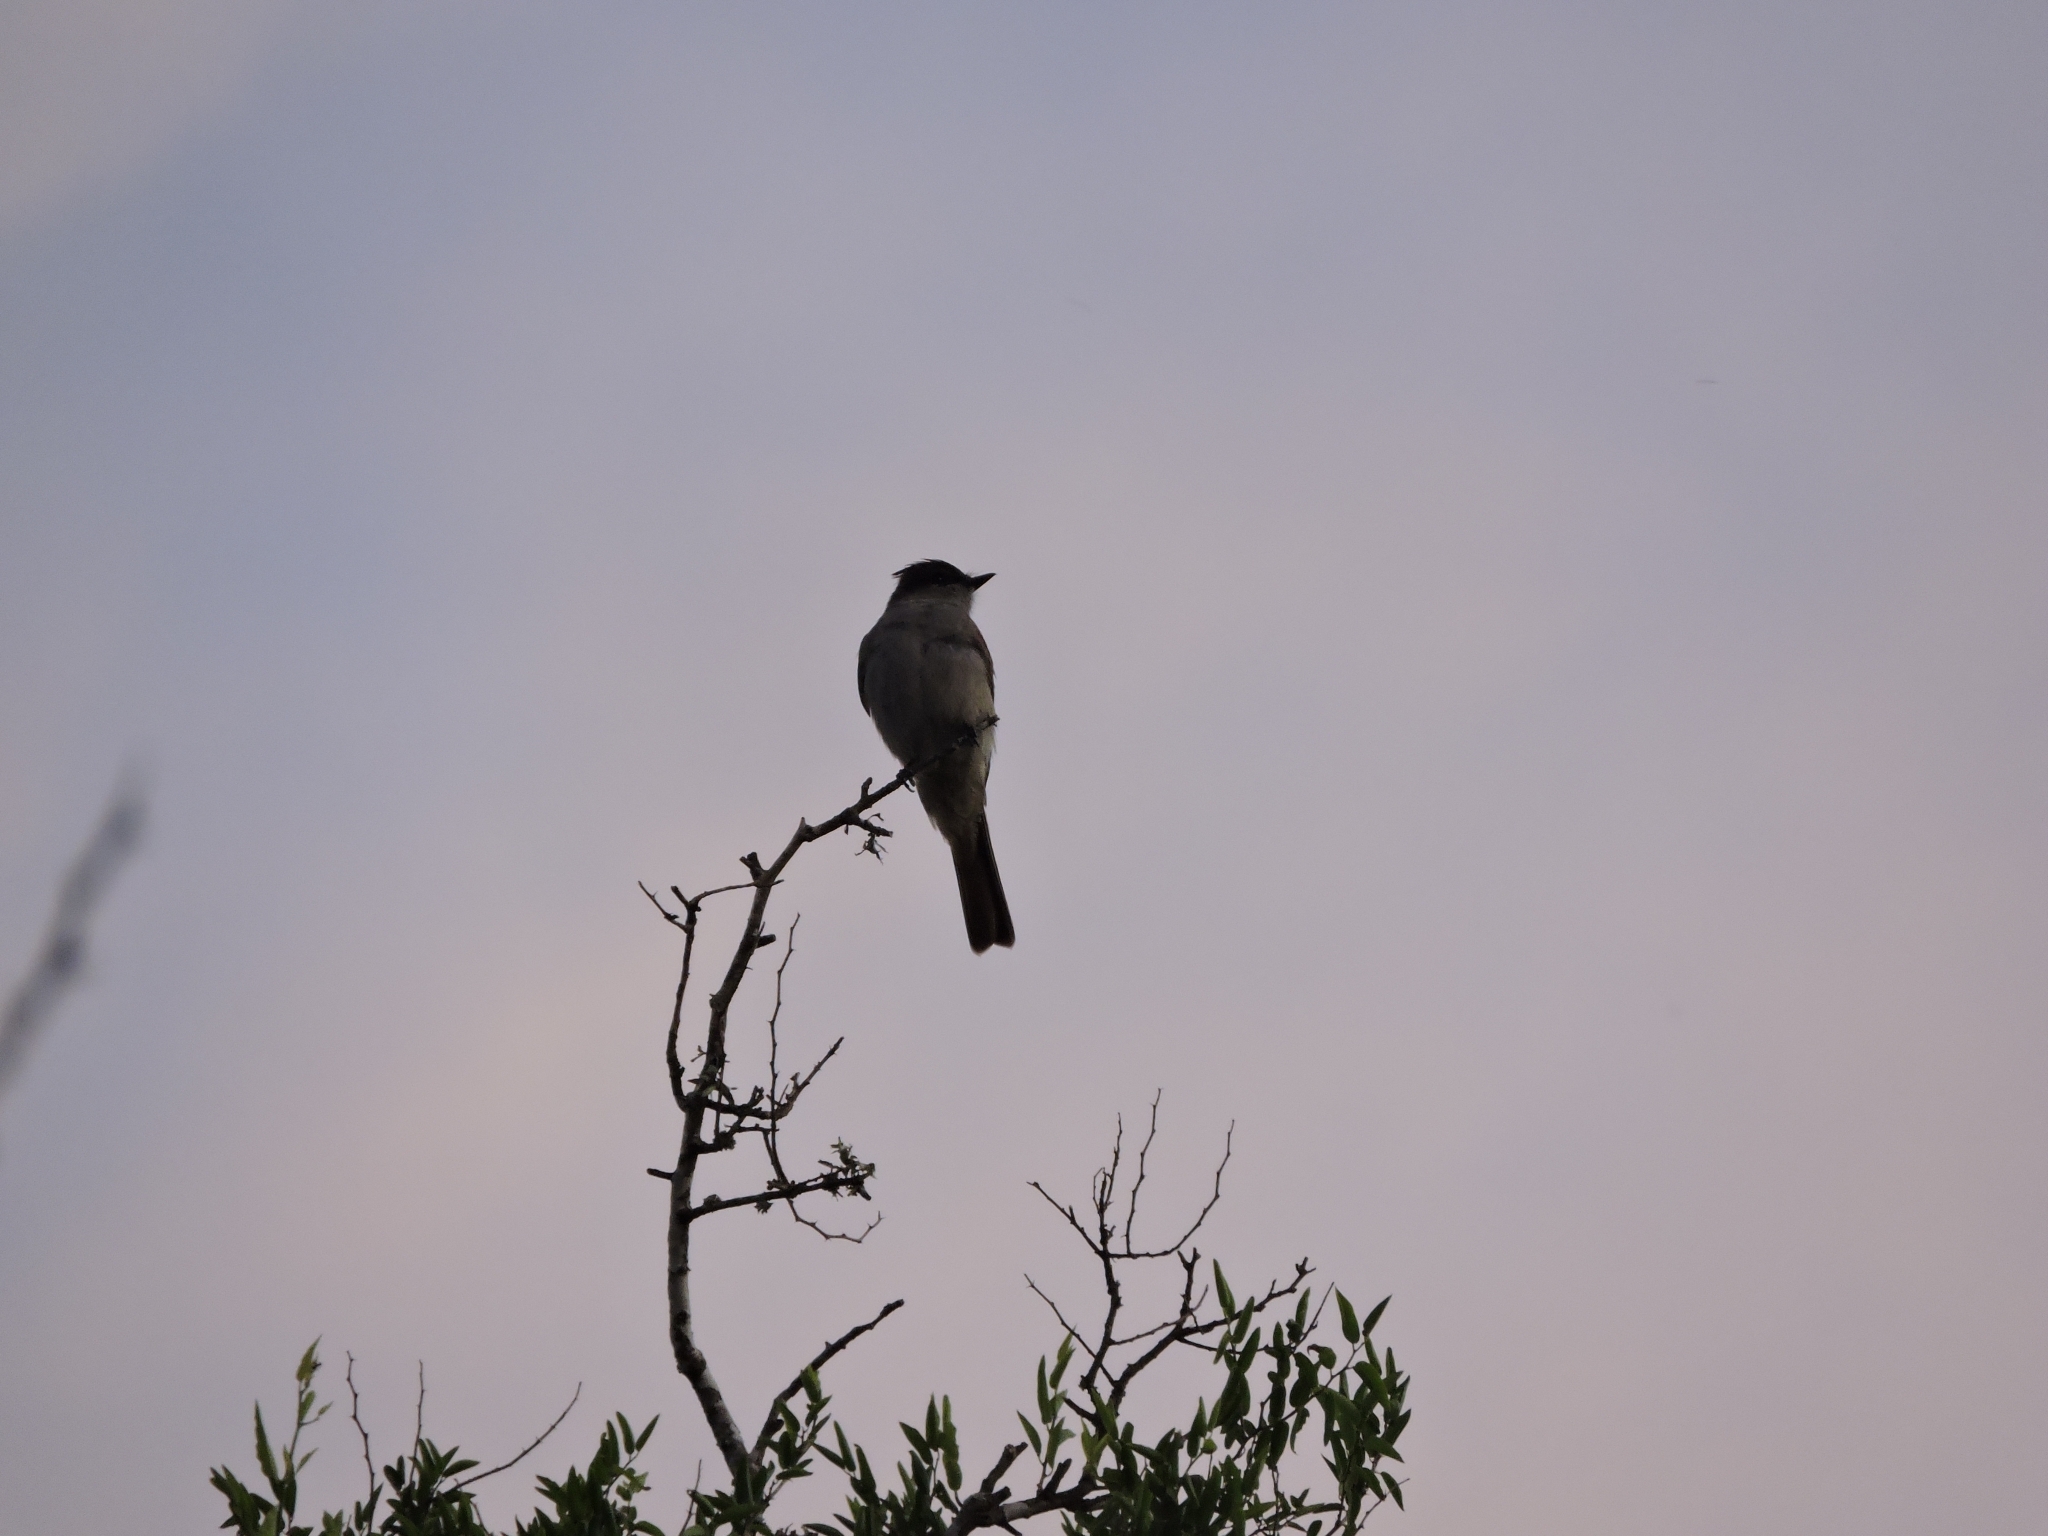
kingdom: Animalia
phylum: Chordata
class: Aves
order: Passeriformes
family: Tyrannidae
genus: Empidonomus
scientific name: Empidonomus aurantioatrocristatus
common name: Crowned slaty flycatcher
